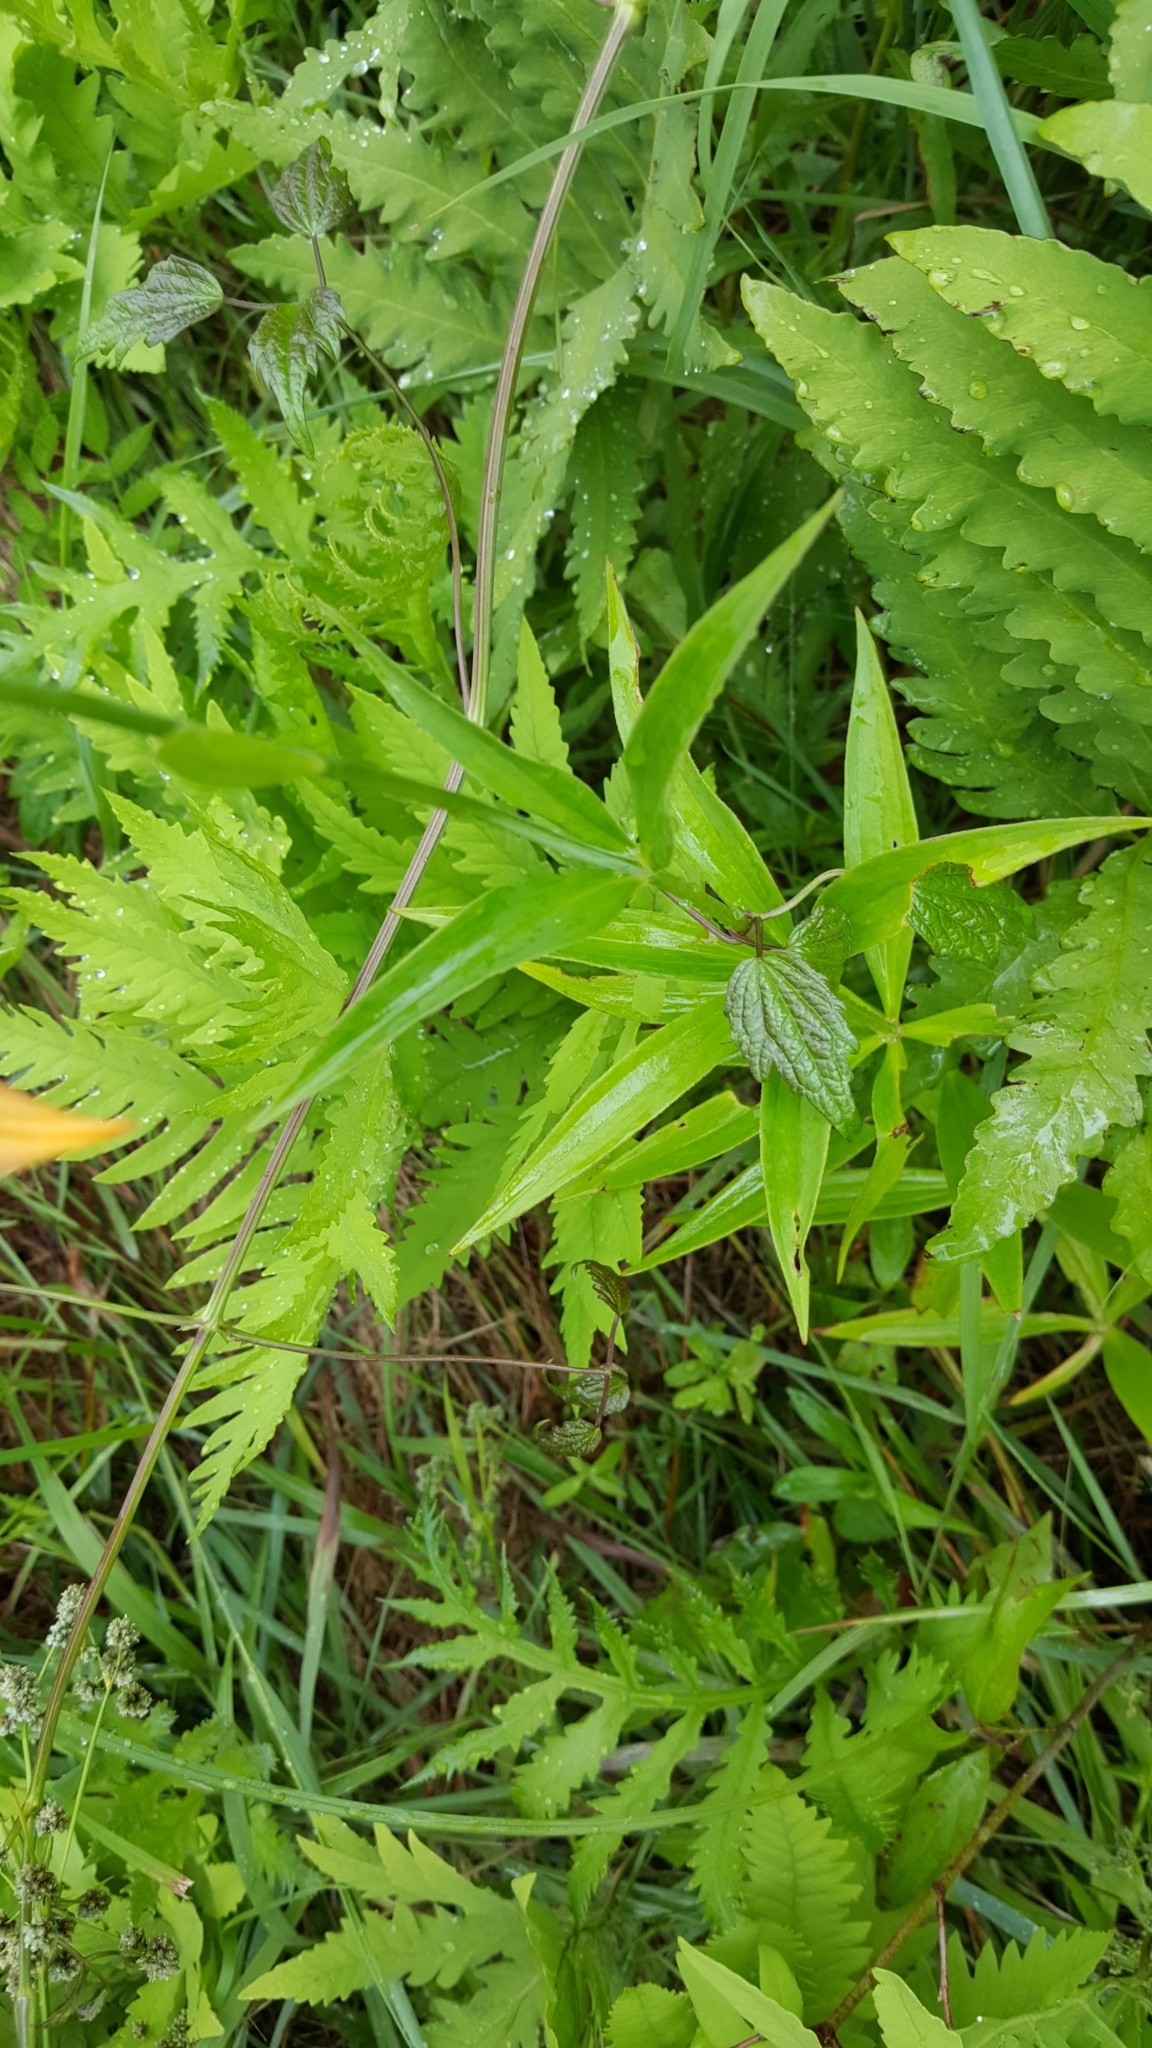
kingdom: Plantae
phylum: Tracheophyta
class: Liliopsida
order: Liliales
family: Liliaceae
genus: Lilium
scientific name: Lilium canadense
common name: Canada lily
